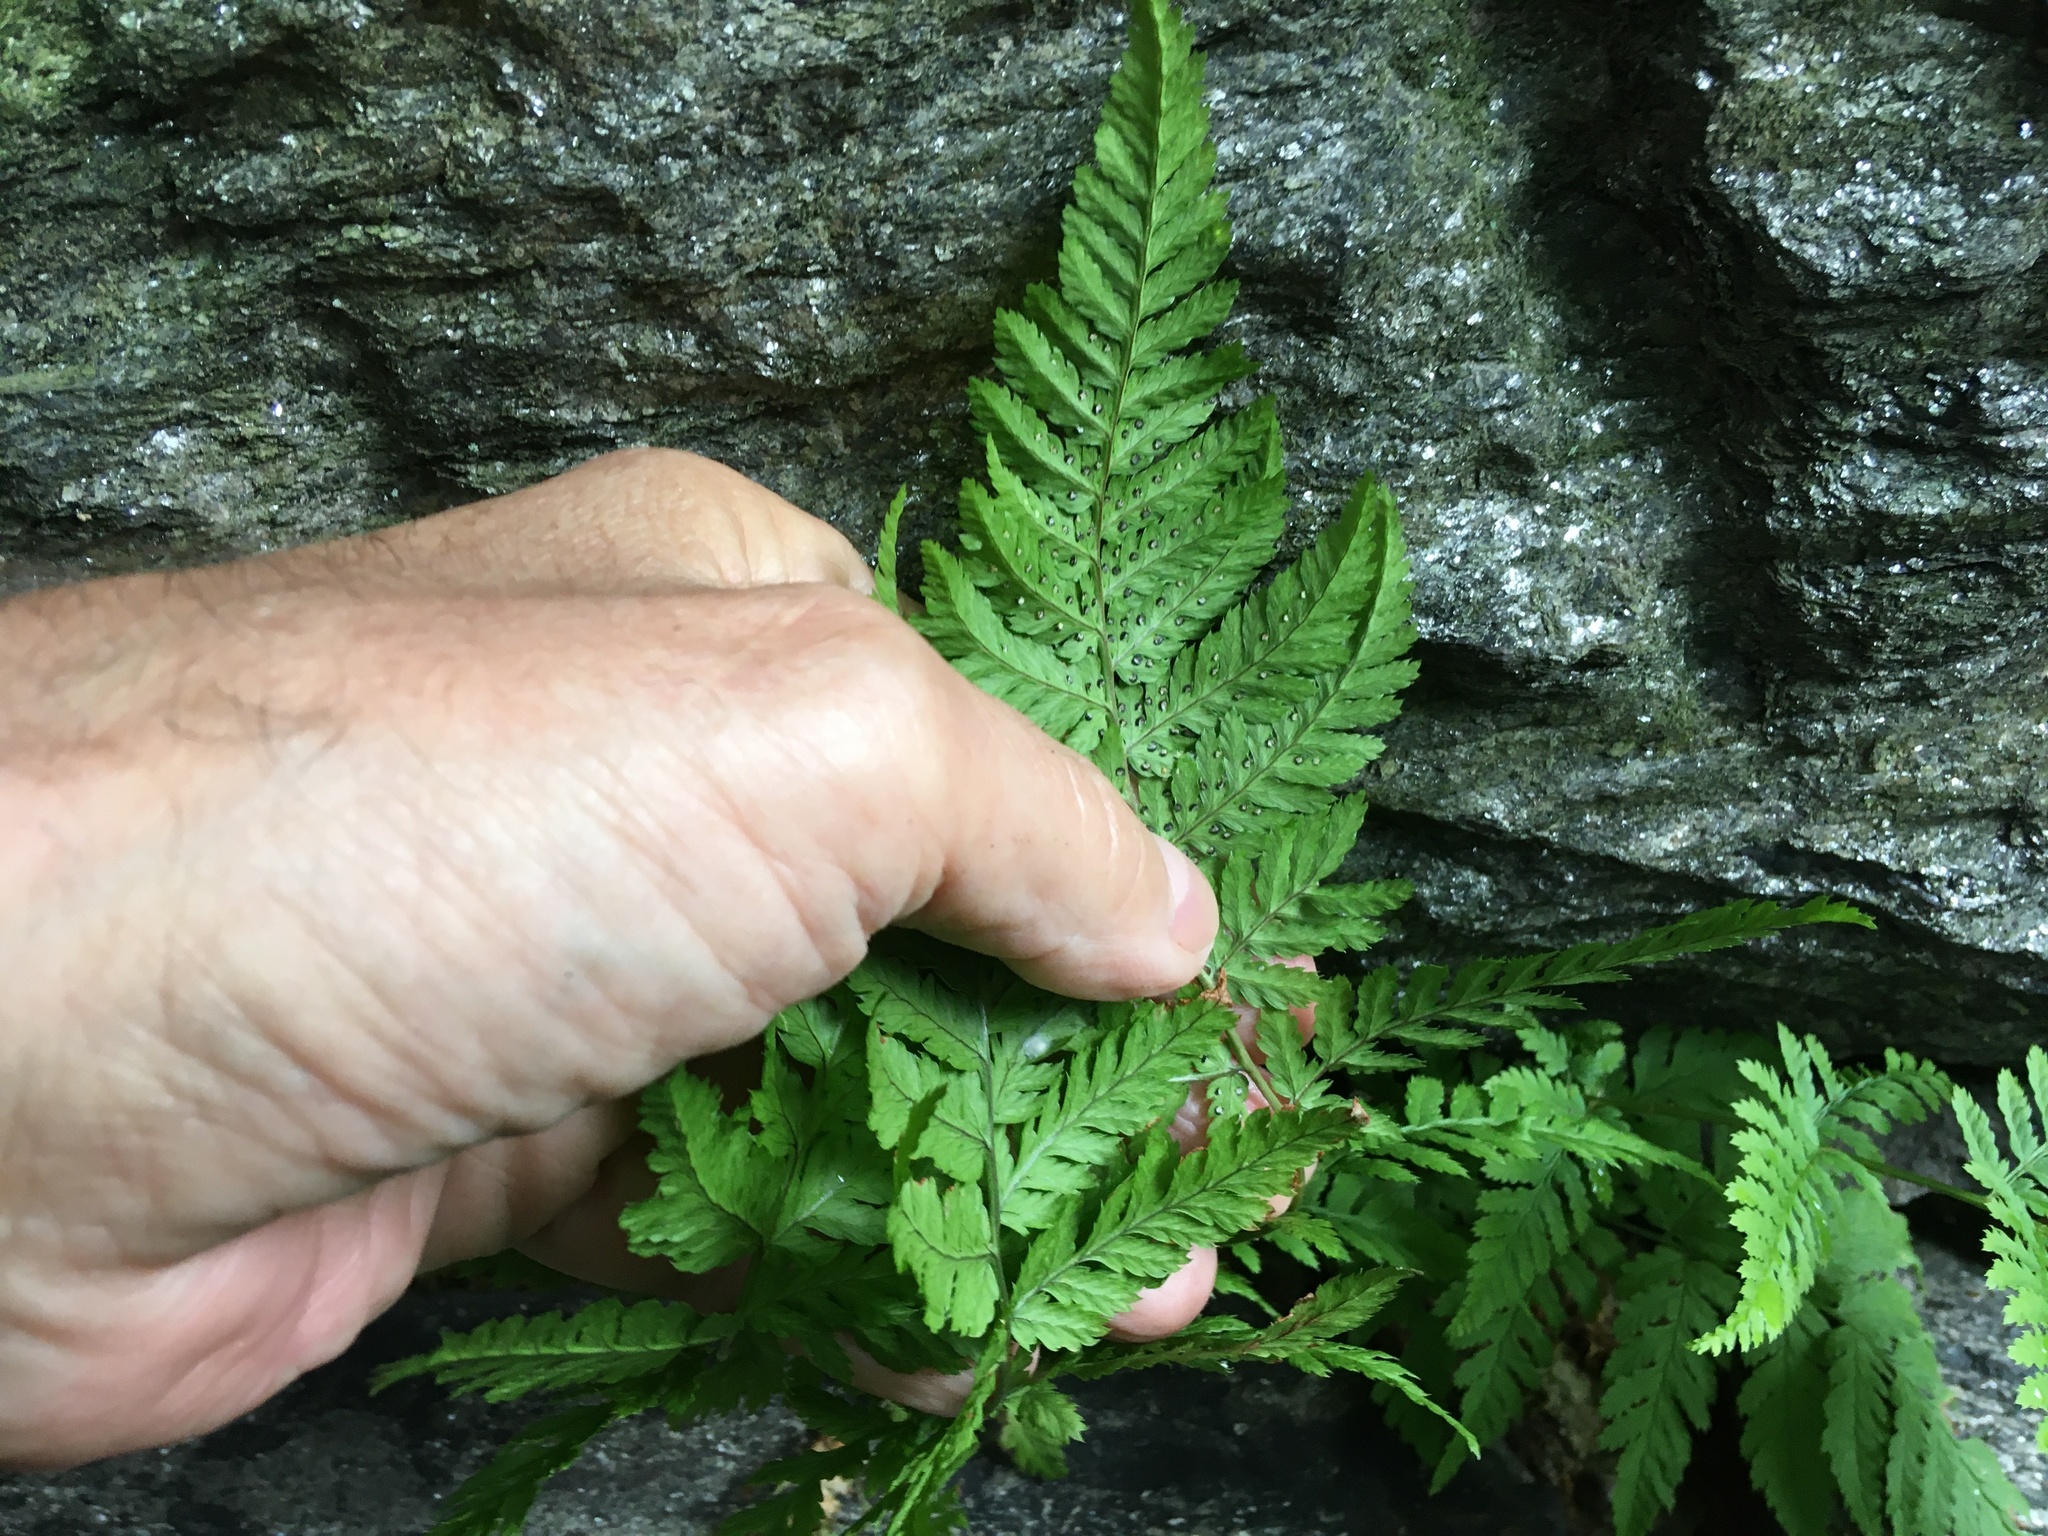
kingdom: Plantae
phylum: Tracheophyta
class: Polypodiopsida
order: Polypodiales
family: Dryopteridaceae
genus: Dryopteris
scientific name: Dryopteris carthusiana
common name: Narrow buckler-fern
